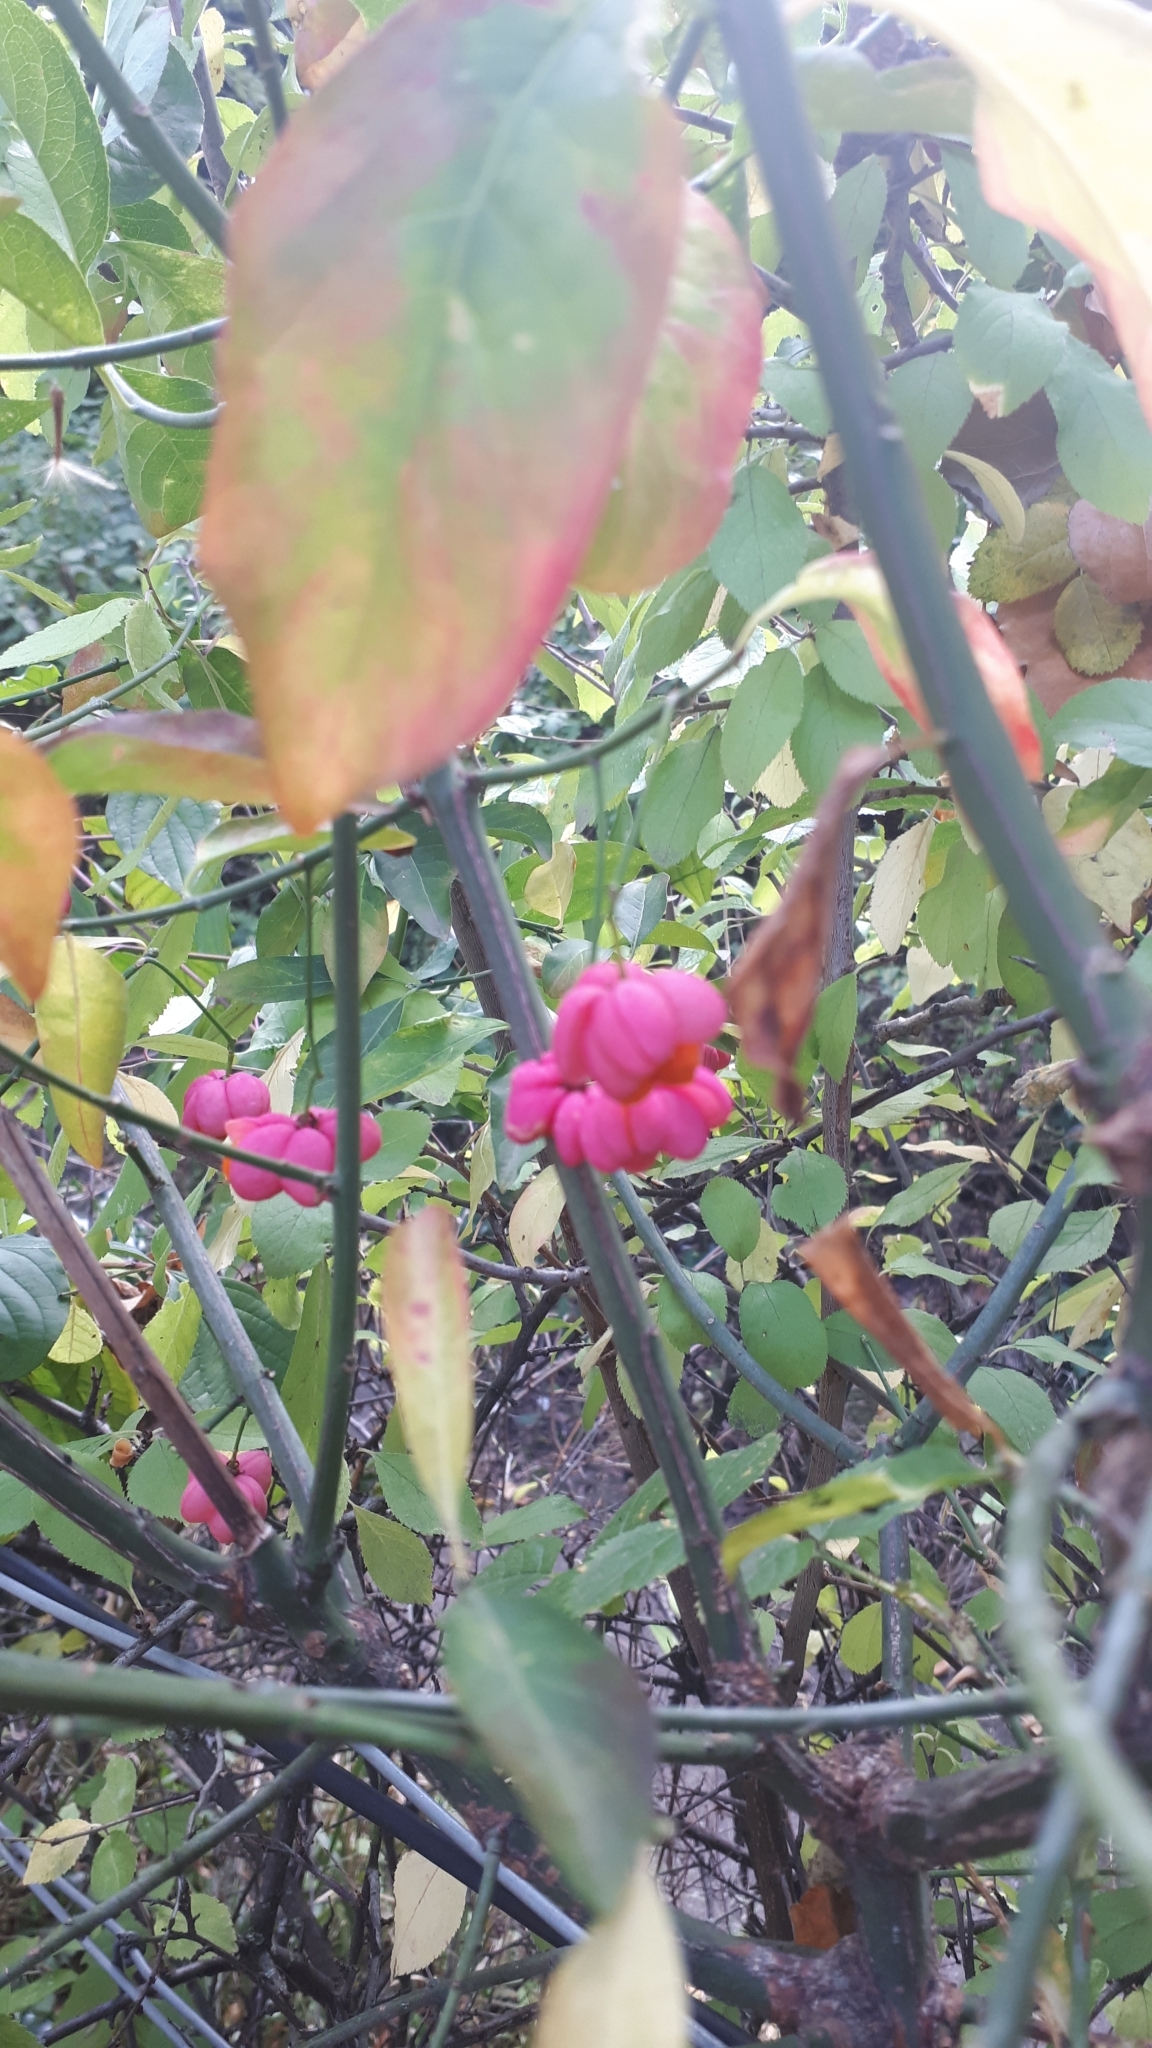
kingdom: Plantae
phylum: Tracheophyta
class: Magnoliopsida
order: Celastrales
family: Celastraceae
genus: Euonymus
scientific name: Euonymus europaeus
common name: Spindle
